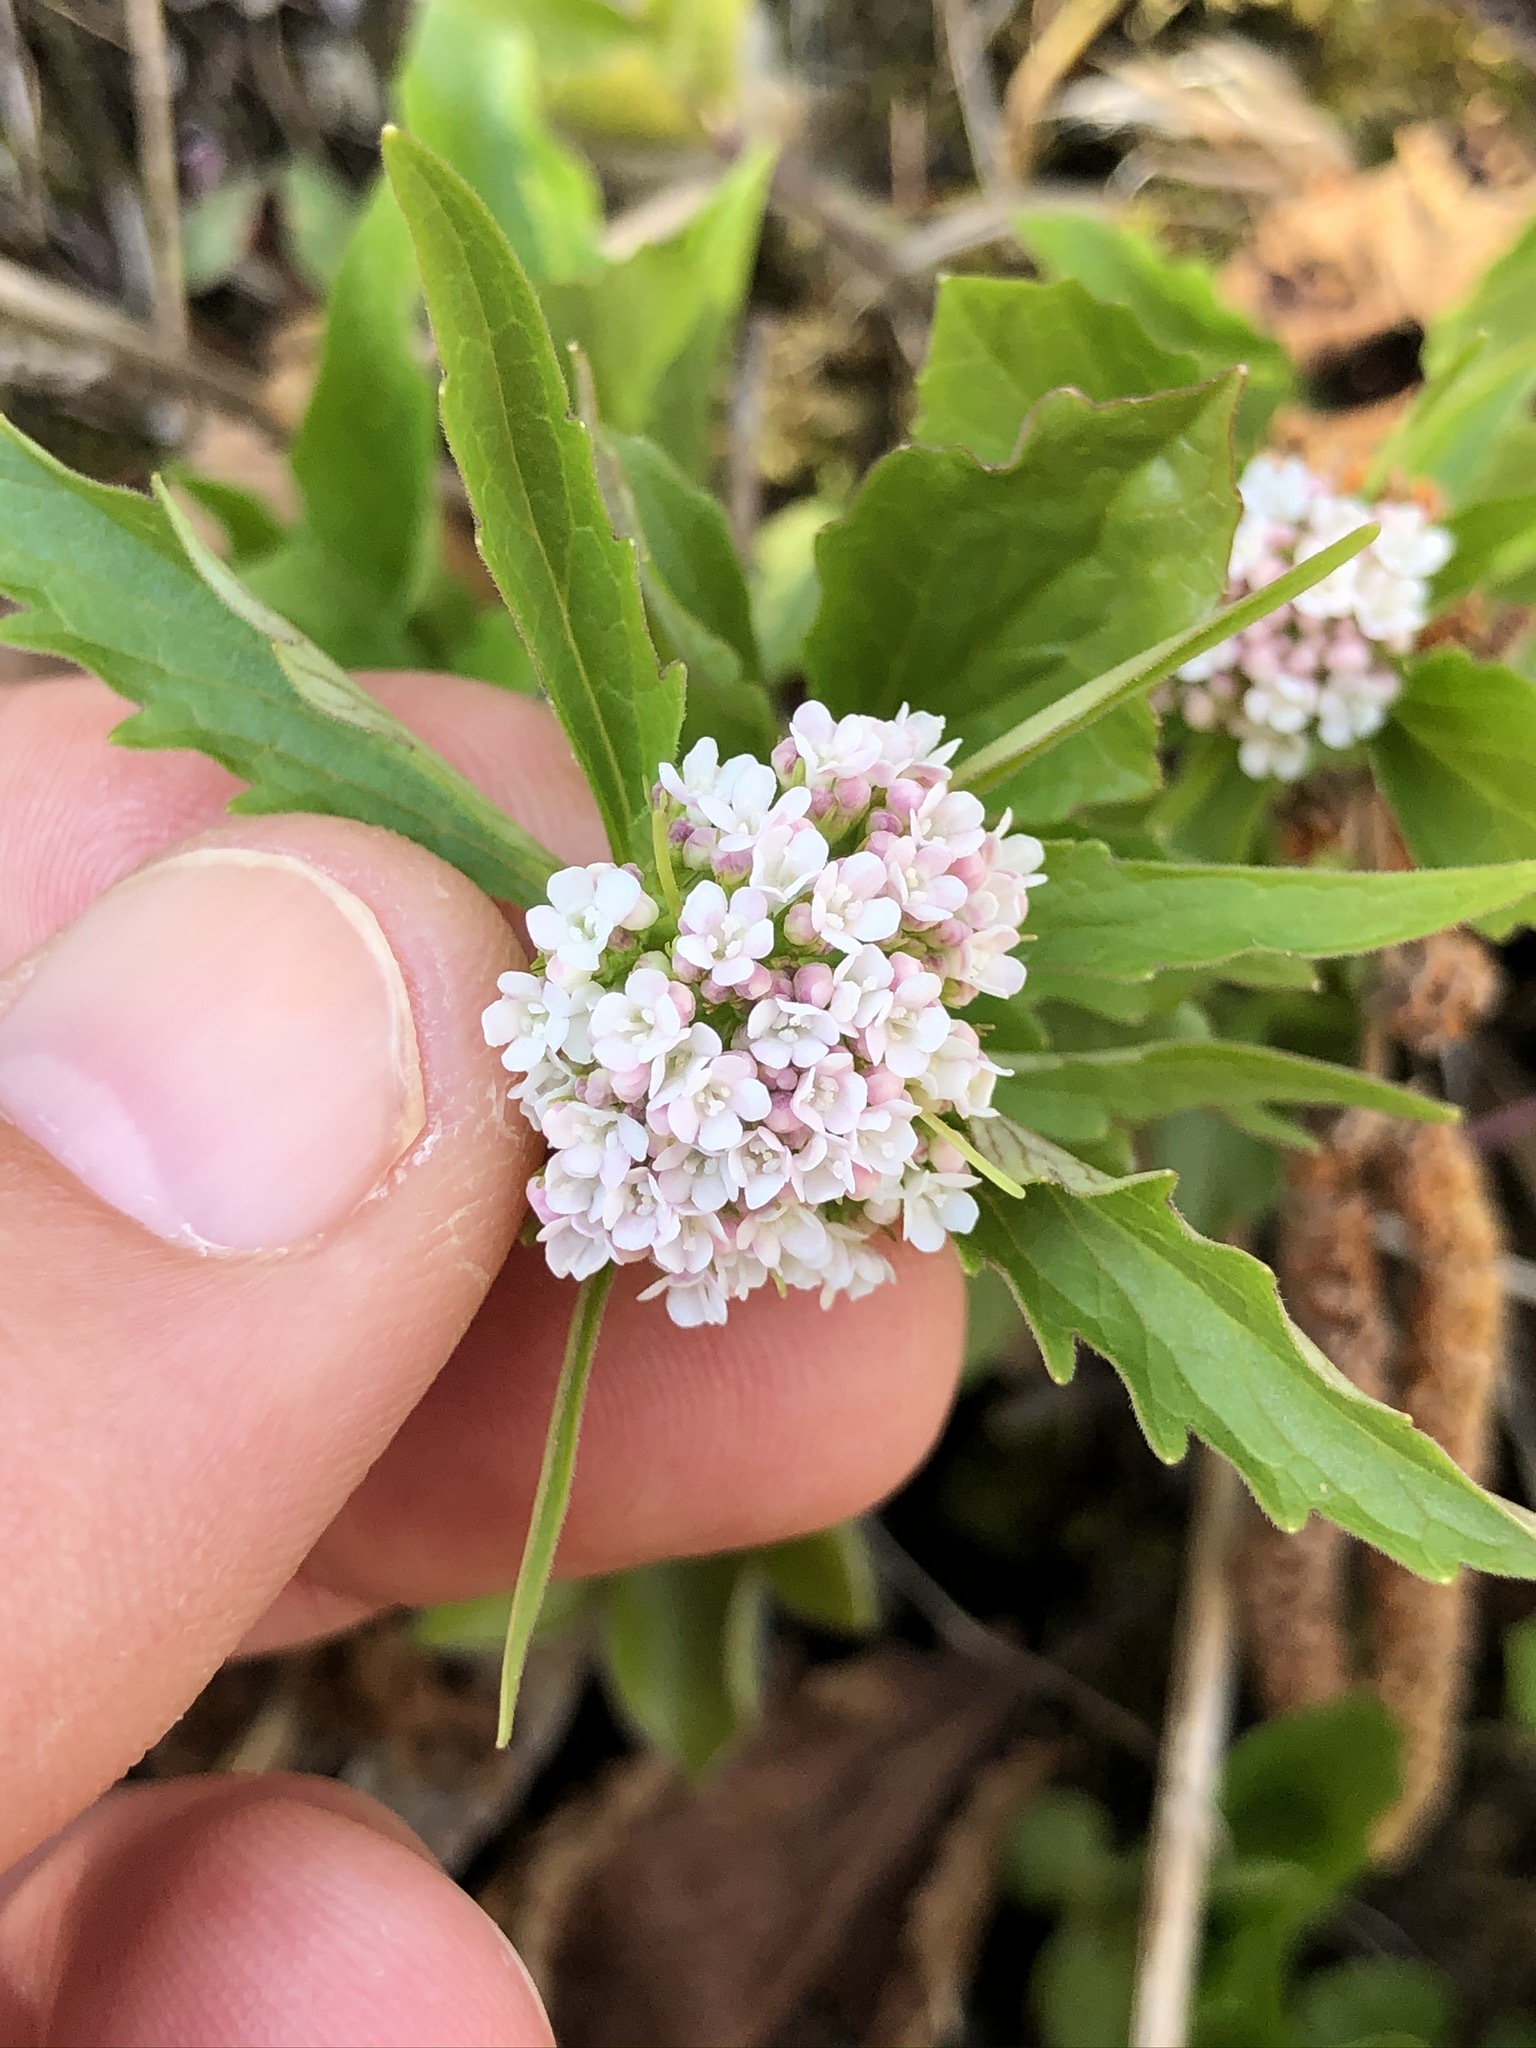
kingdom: Plantae
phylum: Tracheophyta
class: Magnoliopsida
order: Dipsacales
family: Caprifoliaceae
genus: Valeriana
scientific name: Valeriana tripteris
